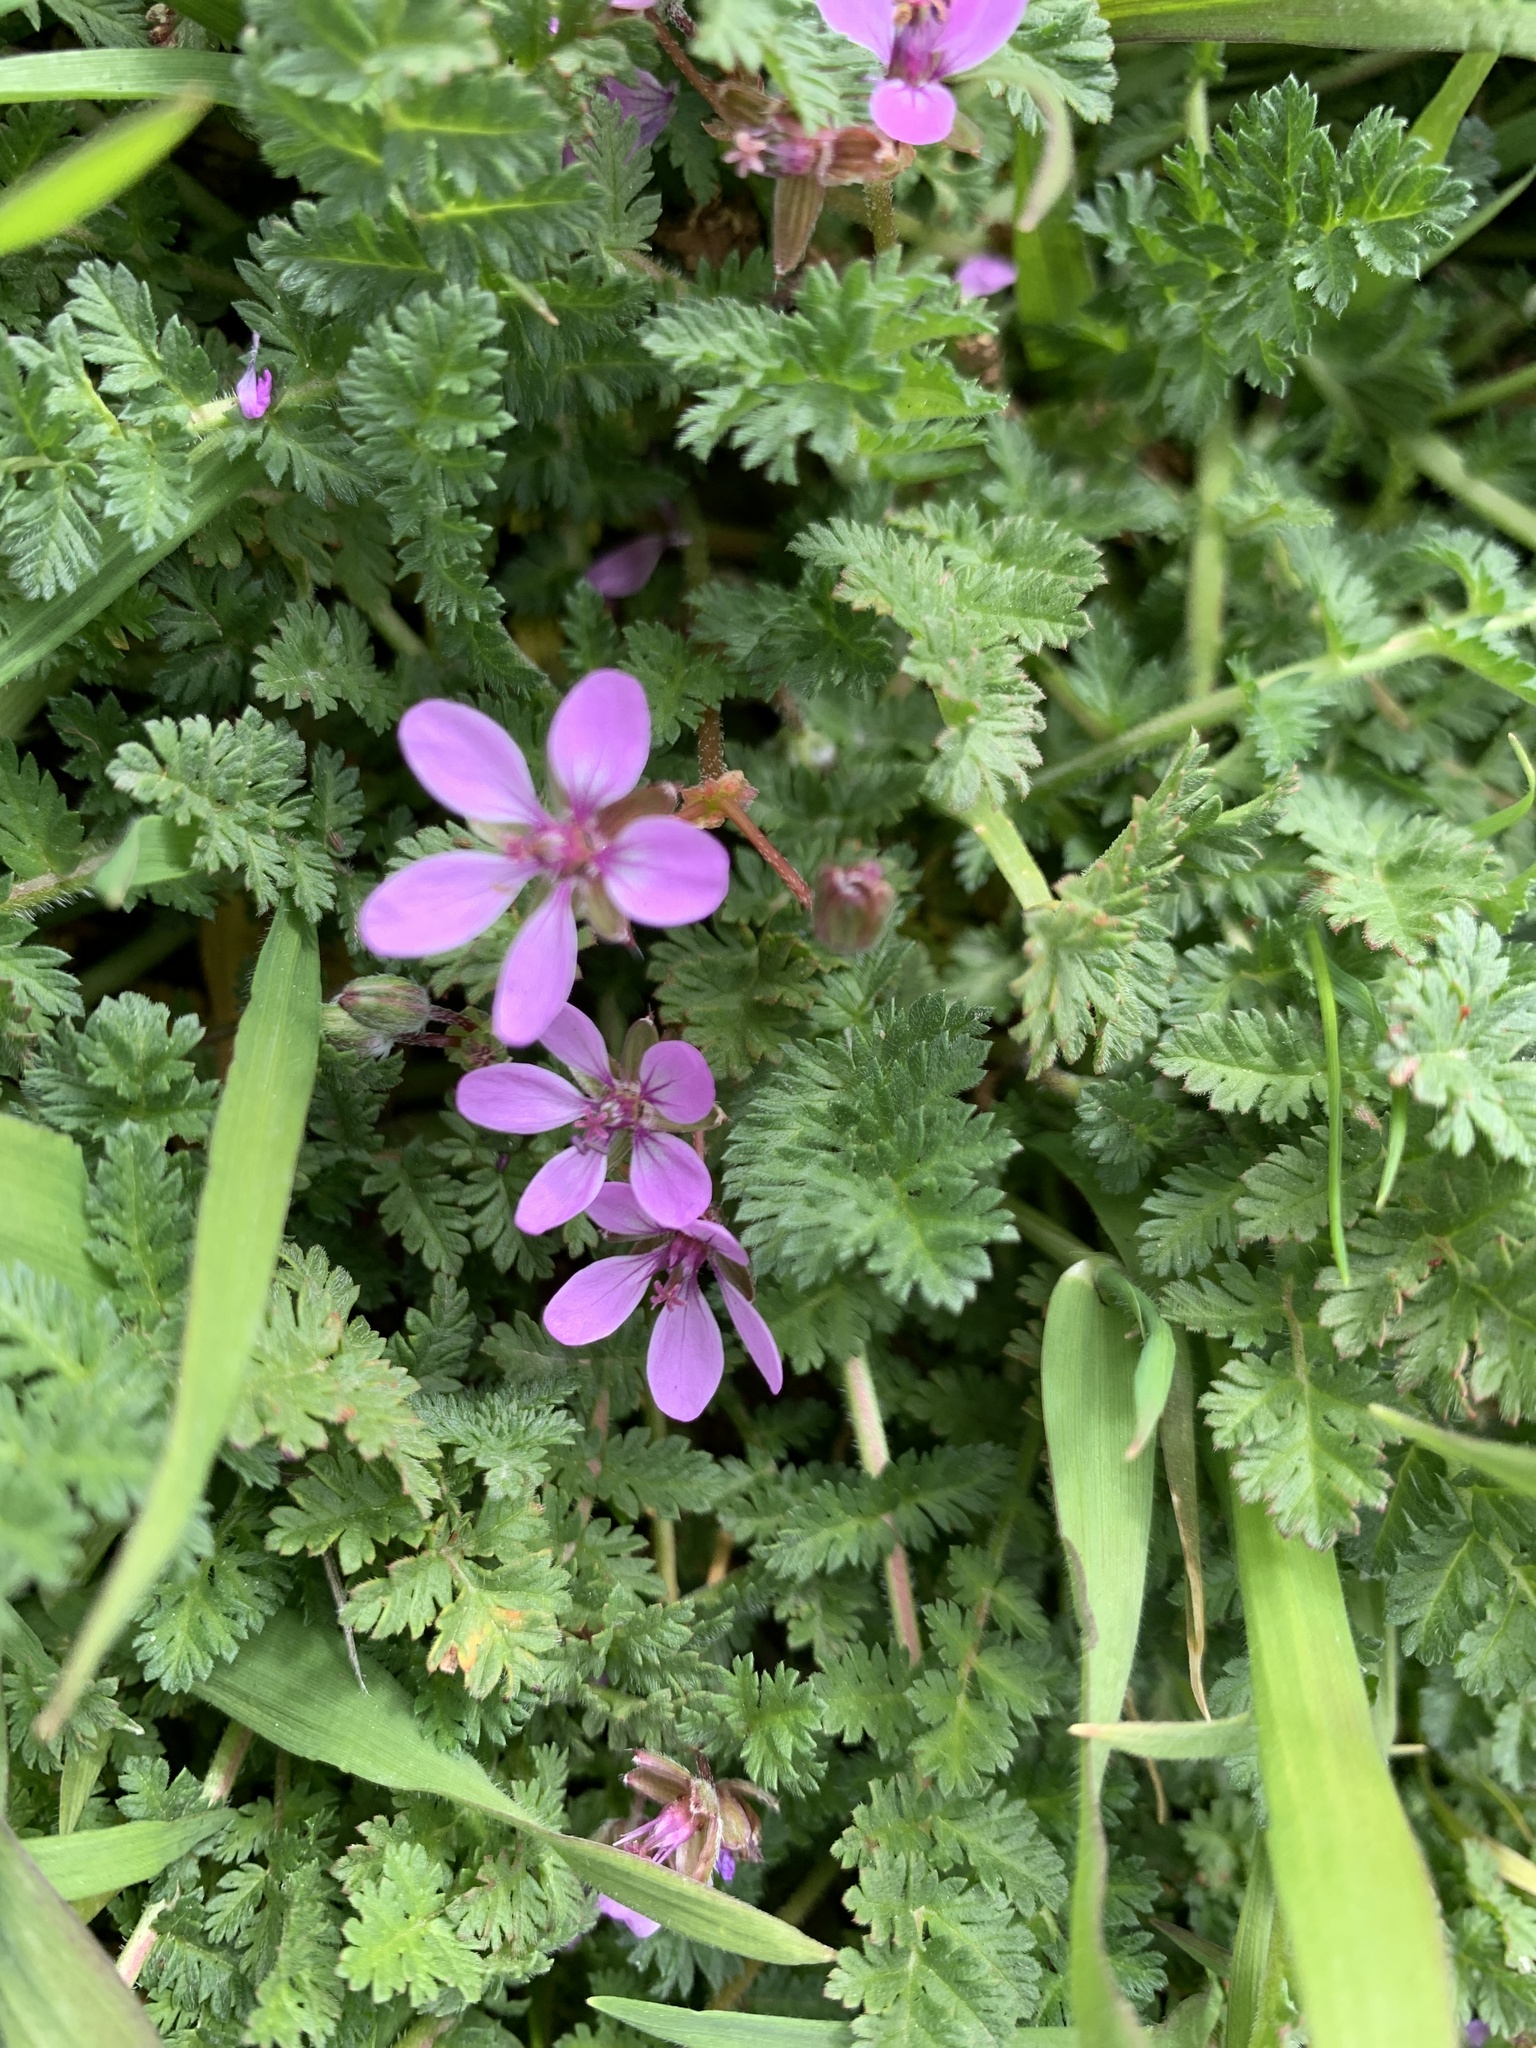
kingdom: Plantae
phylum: Tracheophyta
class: Magnoliopsida
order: Geraniales
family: Geraniaceae
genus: Erodium
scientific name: Erodium cicutarium
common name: Common stork's-bill
